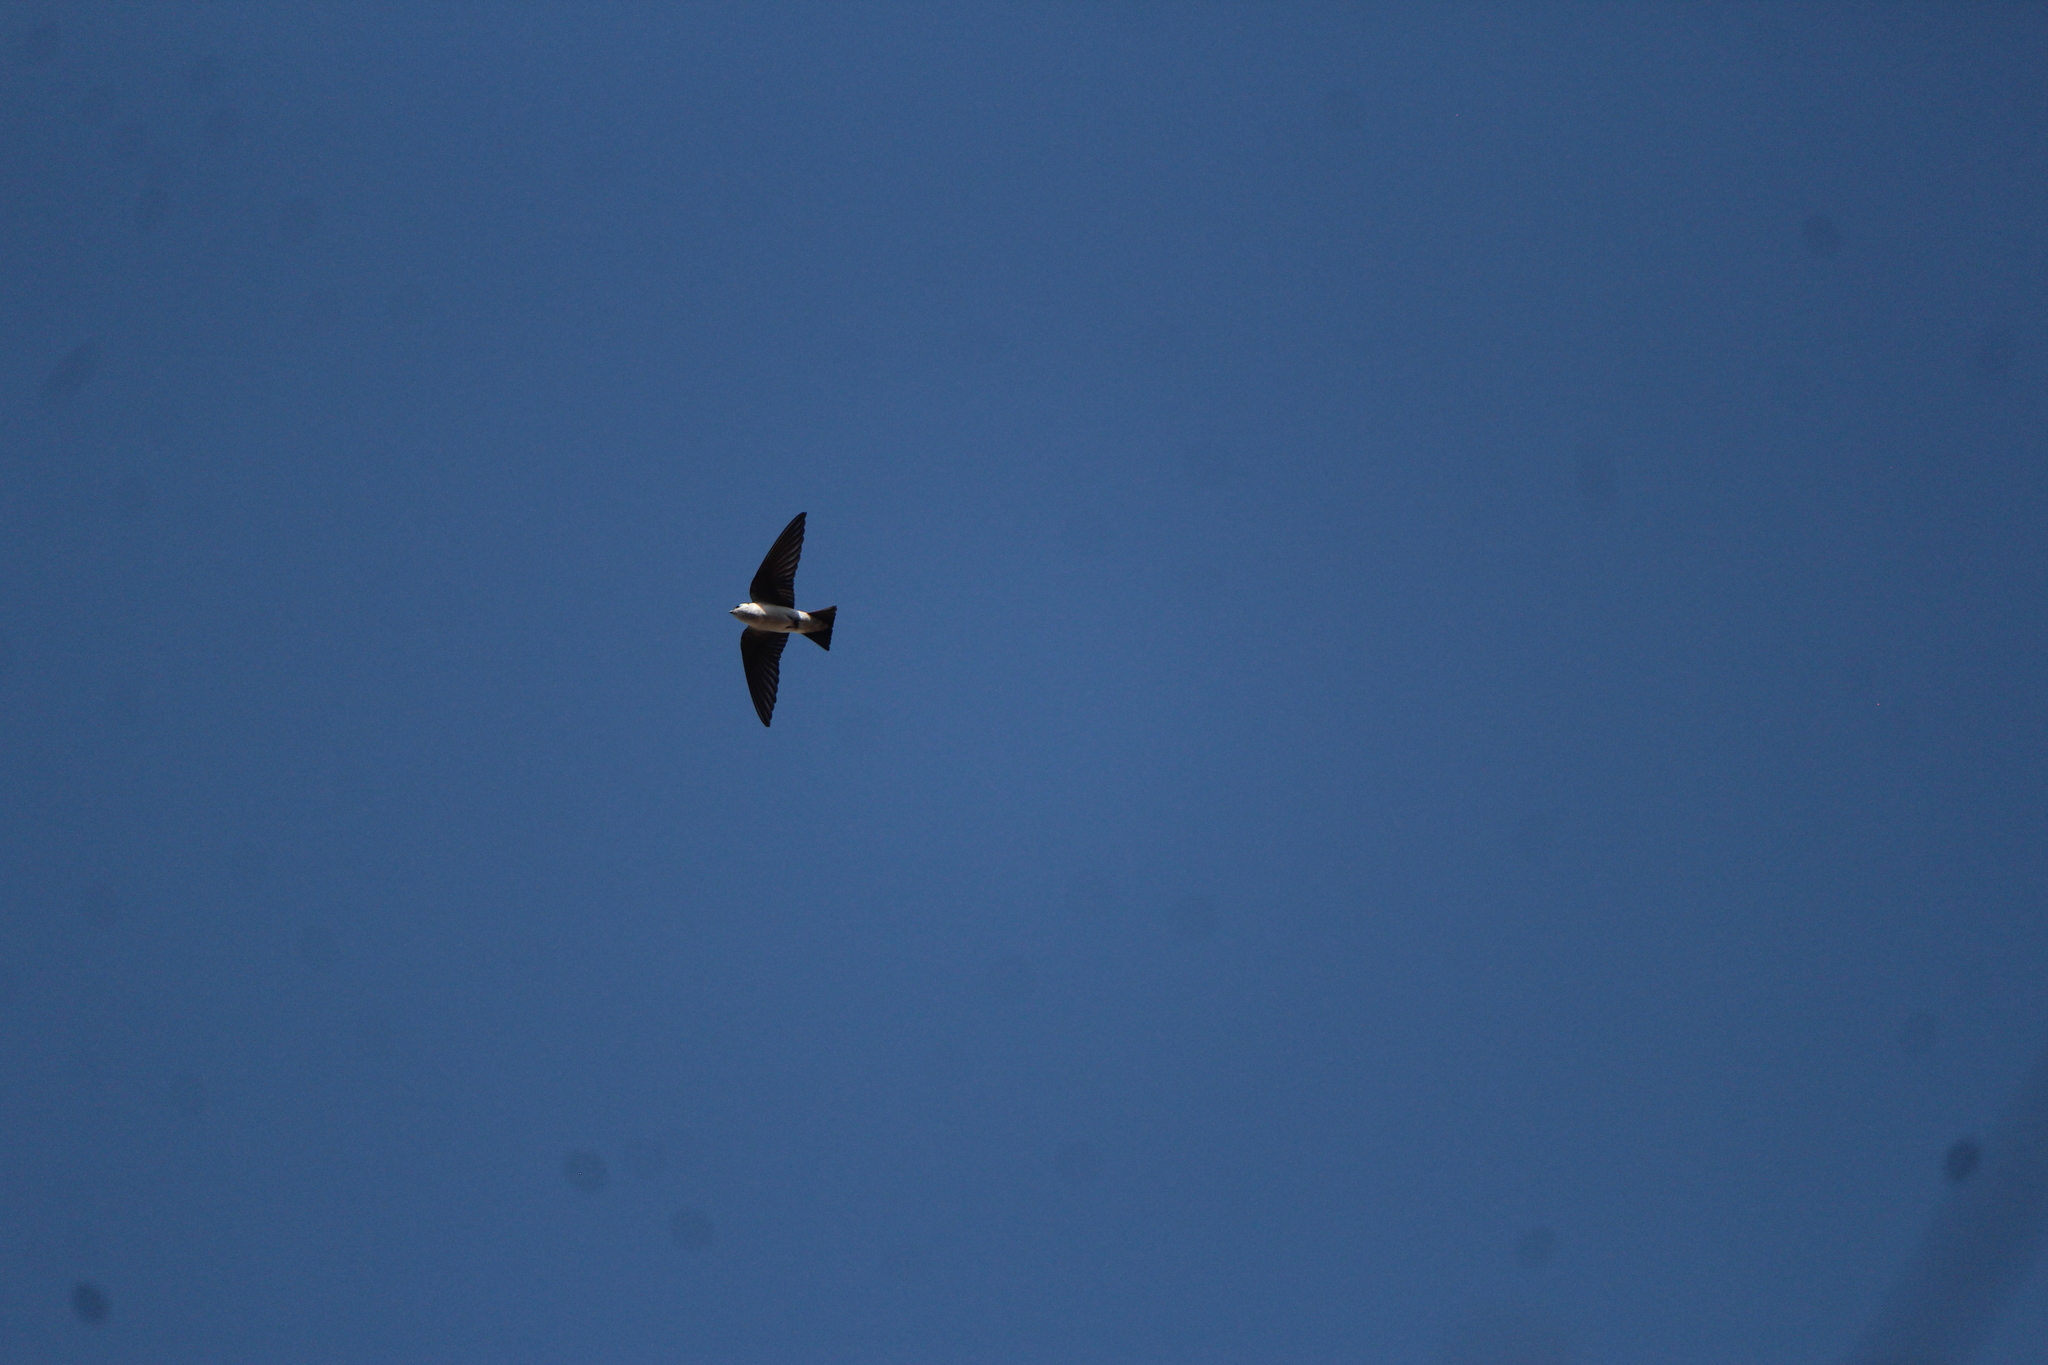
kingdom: Animalia
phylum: Chordata
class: Aves
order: Passeriformes
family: Hirundinidae
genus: Tachycineta
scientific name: Tachycineta thalassina
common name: Violet-green swallow
